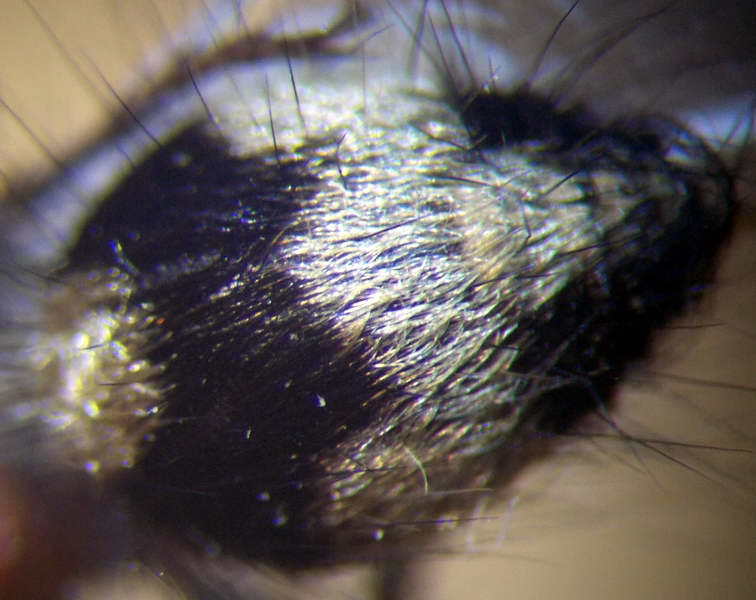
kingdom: Animalia
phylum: Arthropoda
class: Insecta
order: Hymenoptera
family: Mutillidae
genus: Dasylabris
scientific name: Dasylabris regalis
